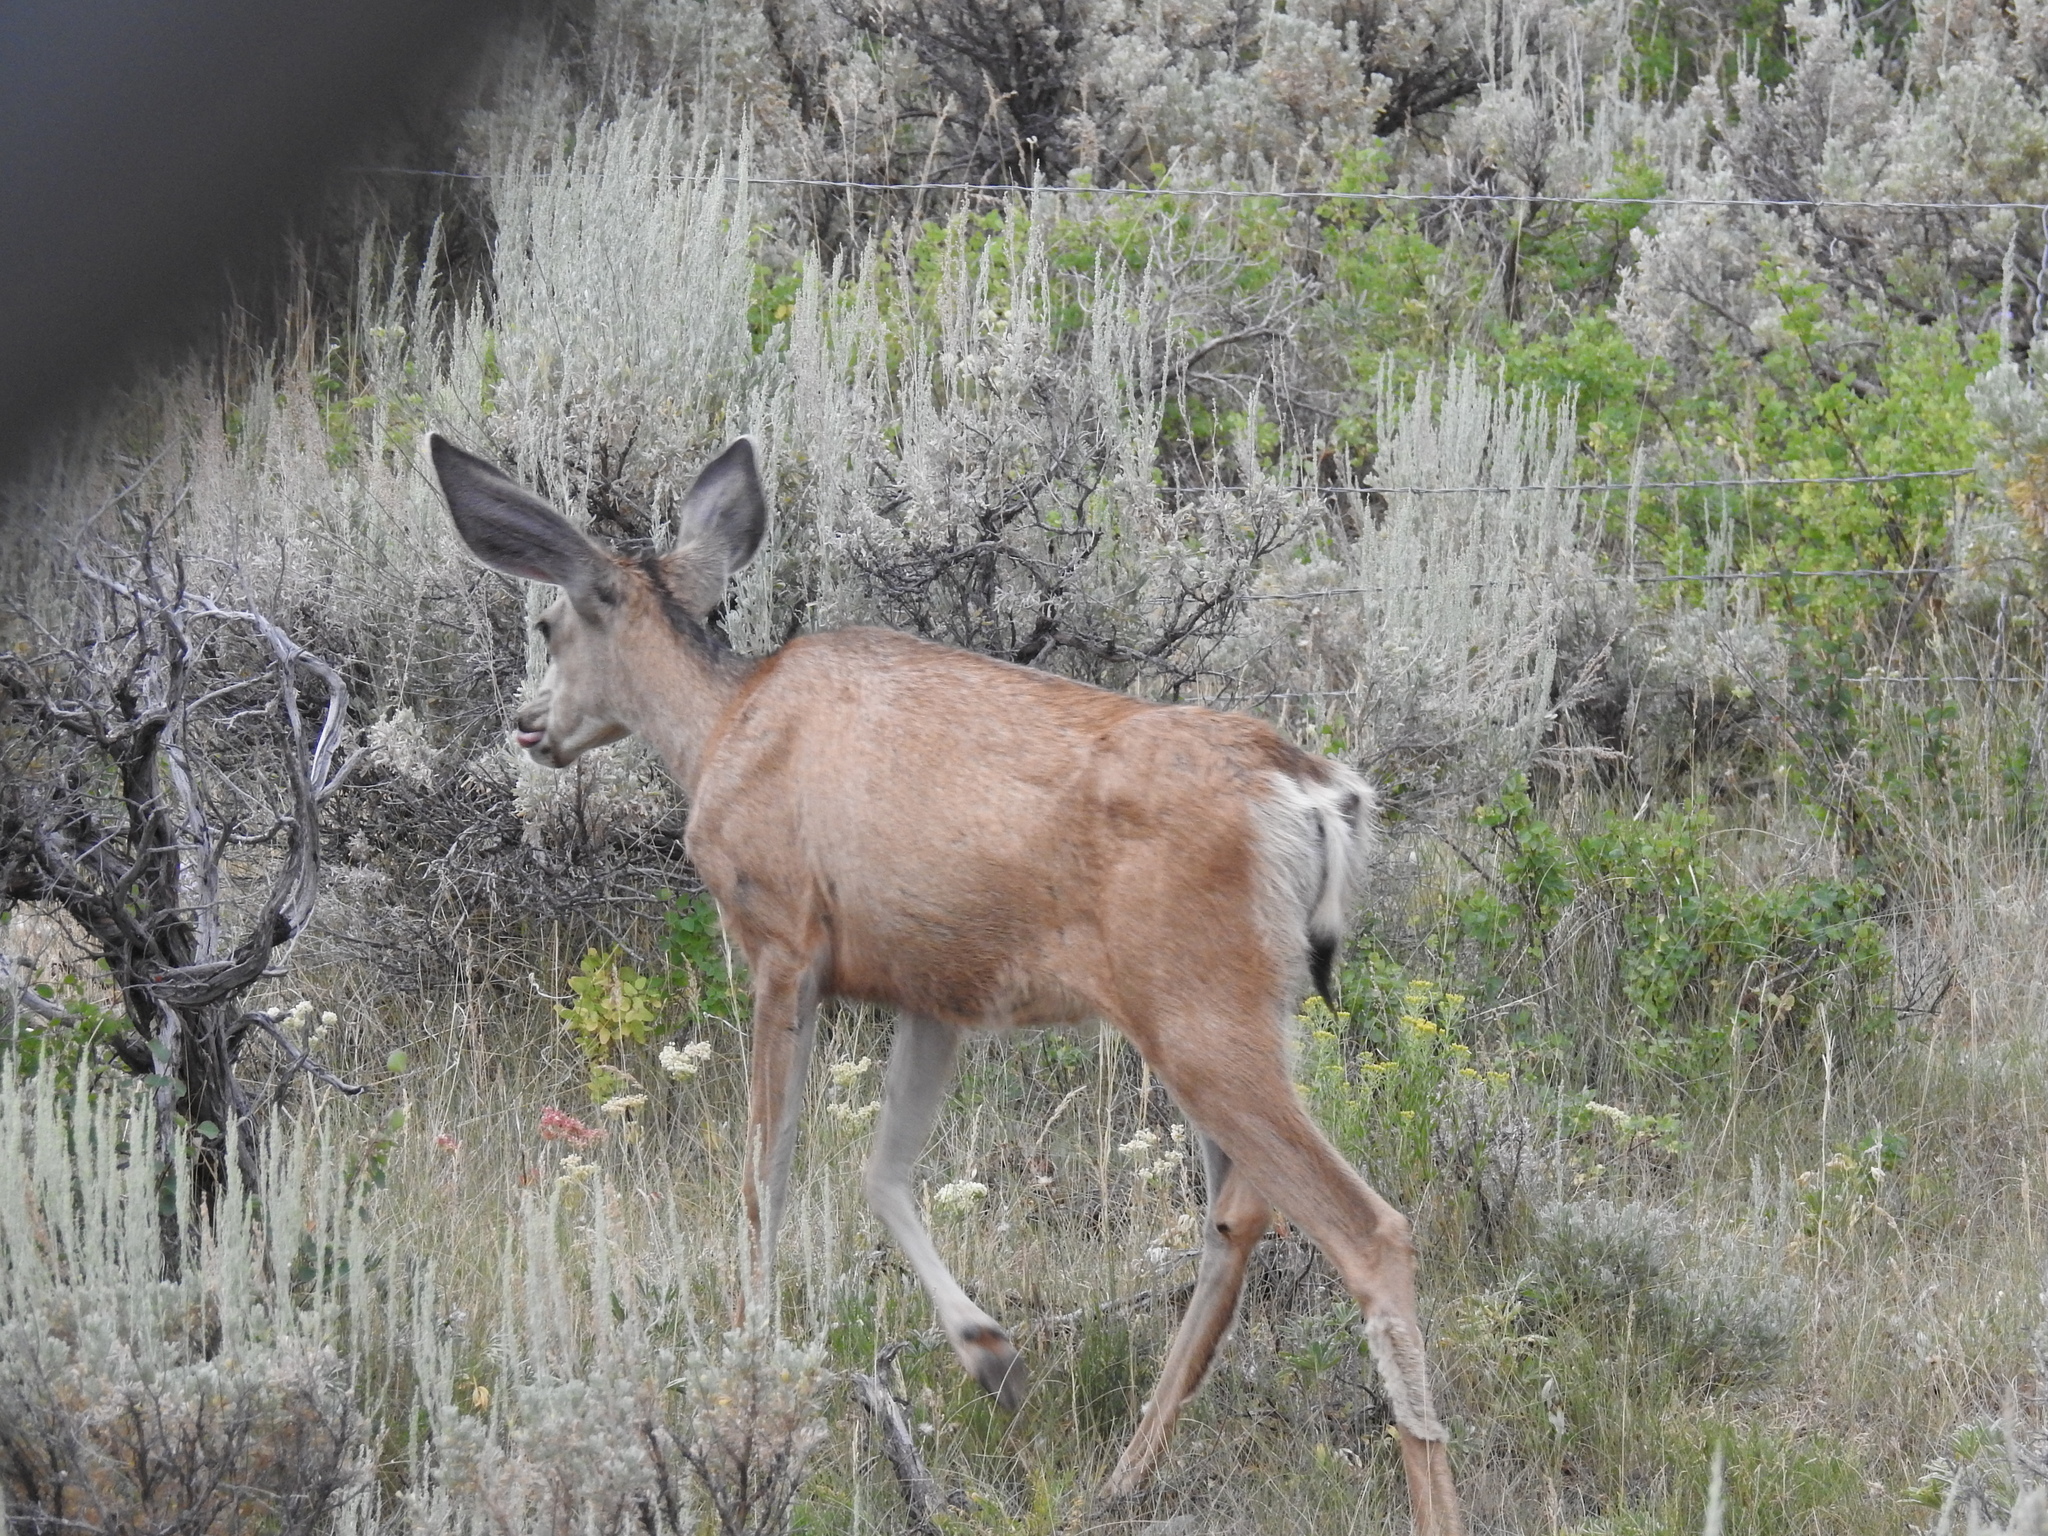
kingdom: Animalia
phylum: Chordata
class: Mammalia
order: Artiodactyla
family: Cervidae
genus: Odocoileus
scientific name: Odocoileus hemionus
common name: Mule deer
